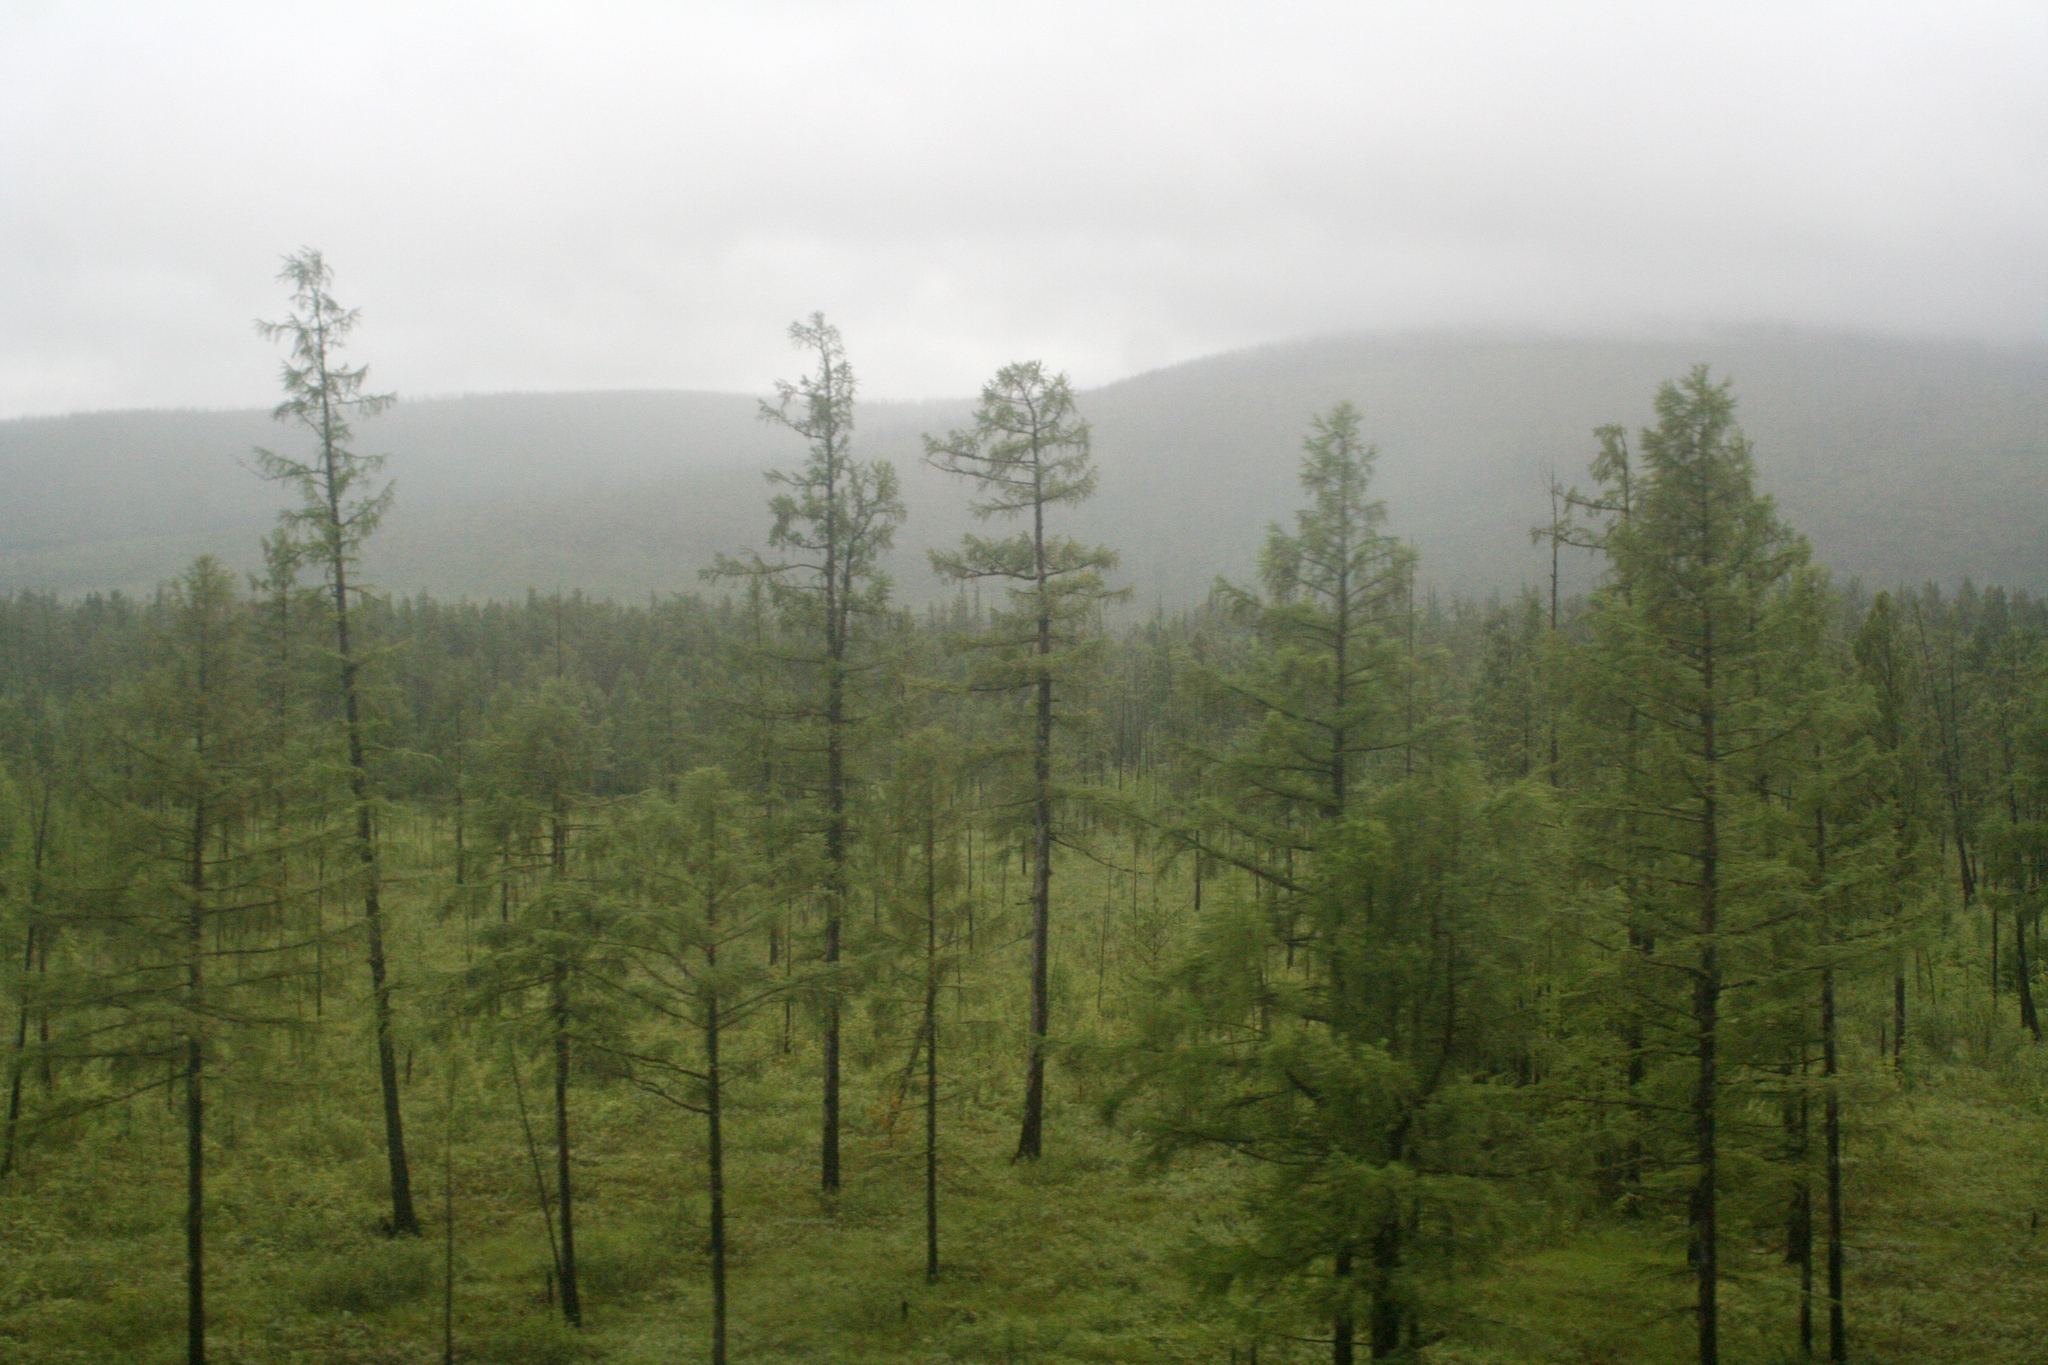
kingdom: Plantae
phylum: Tracheophyta
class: Pinopsida
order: Pinales
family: Pinaceae
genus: Larix
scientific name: Larix gmelinii
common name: Dahurian larch
